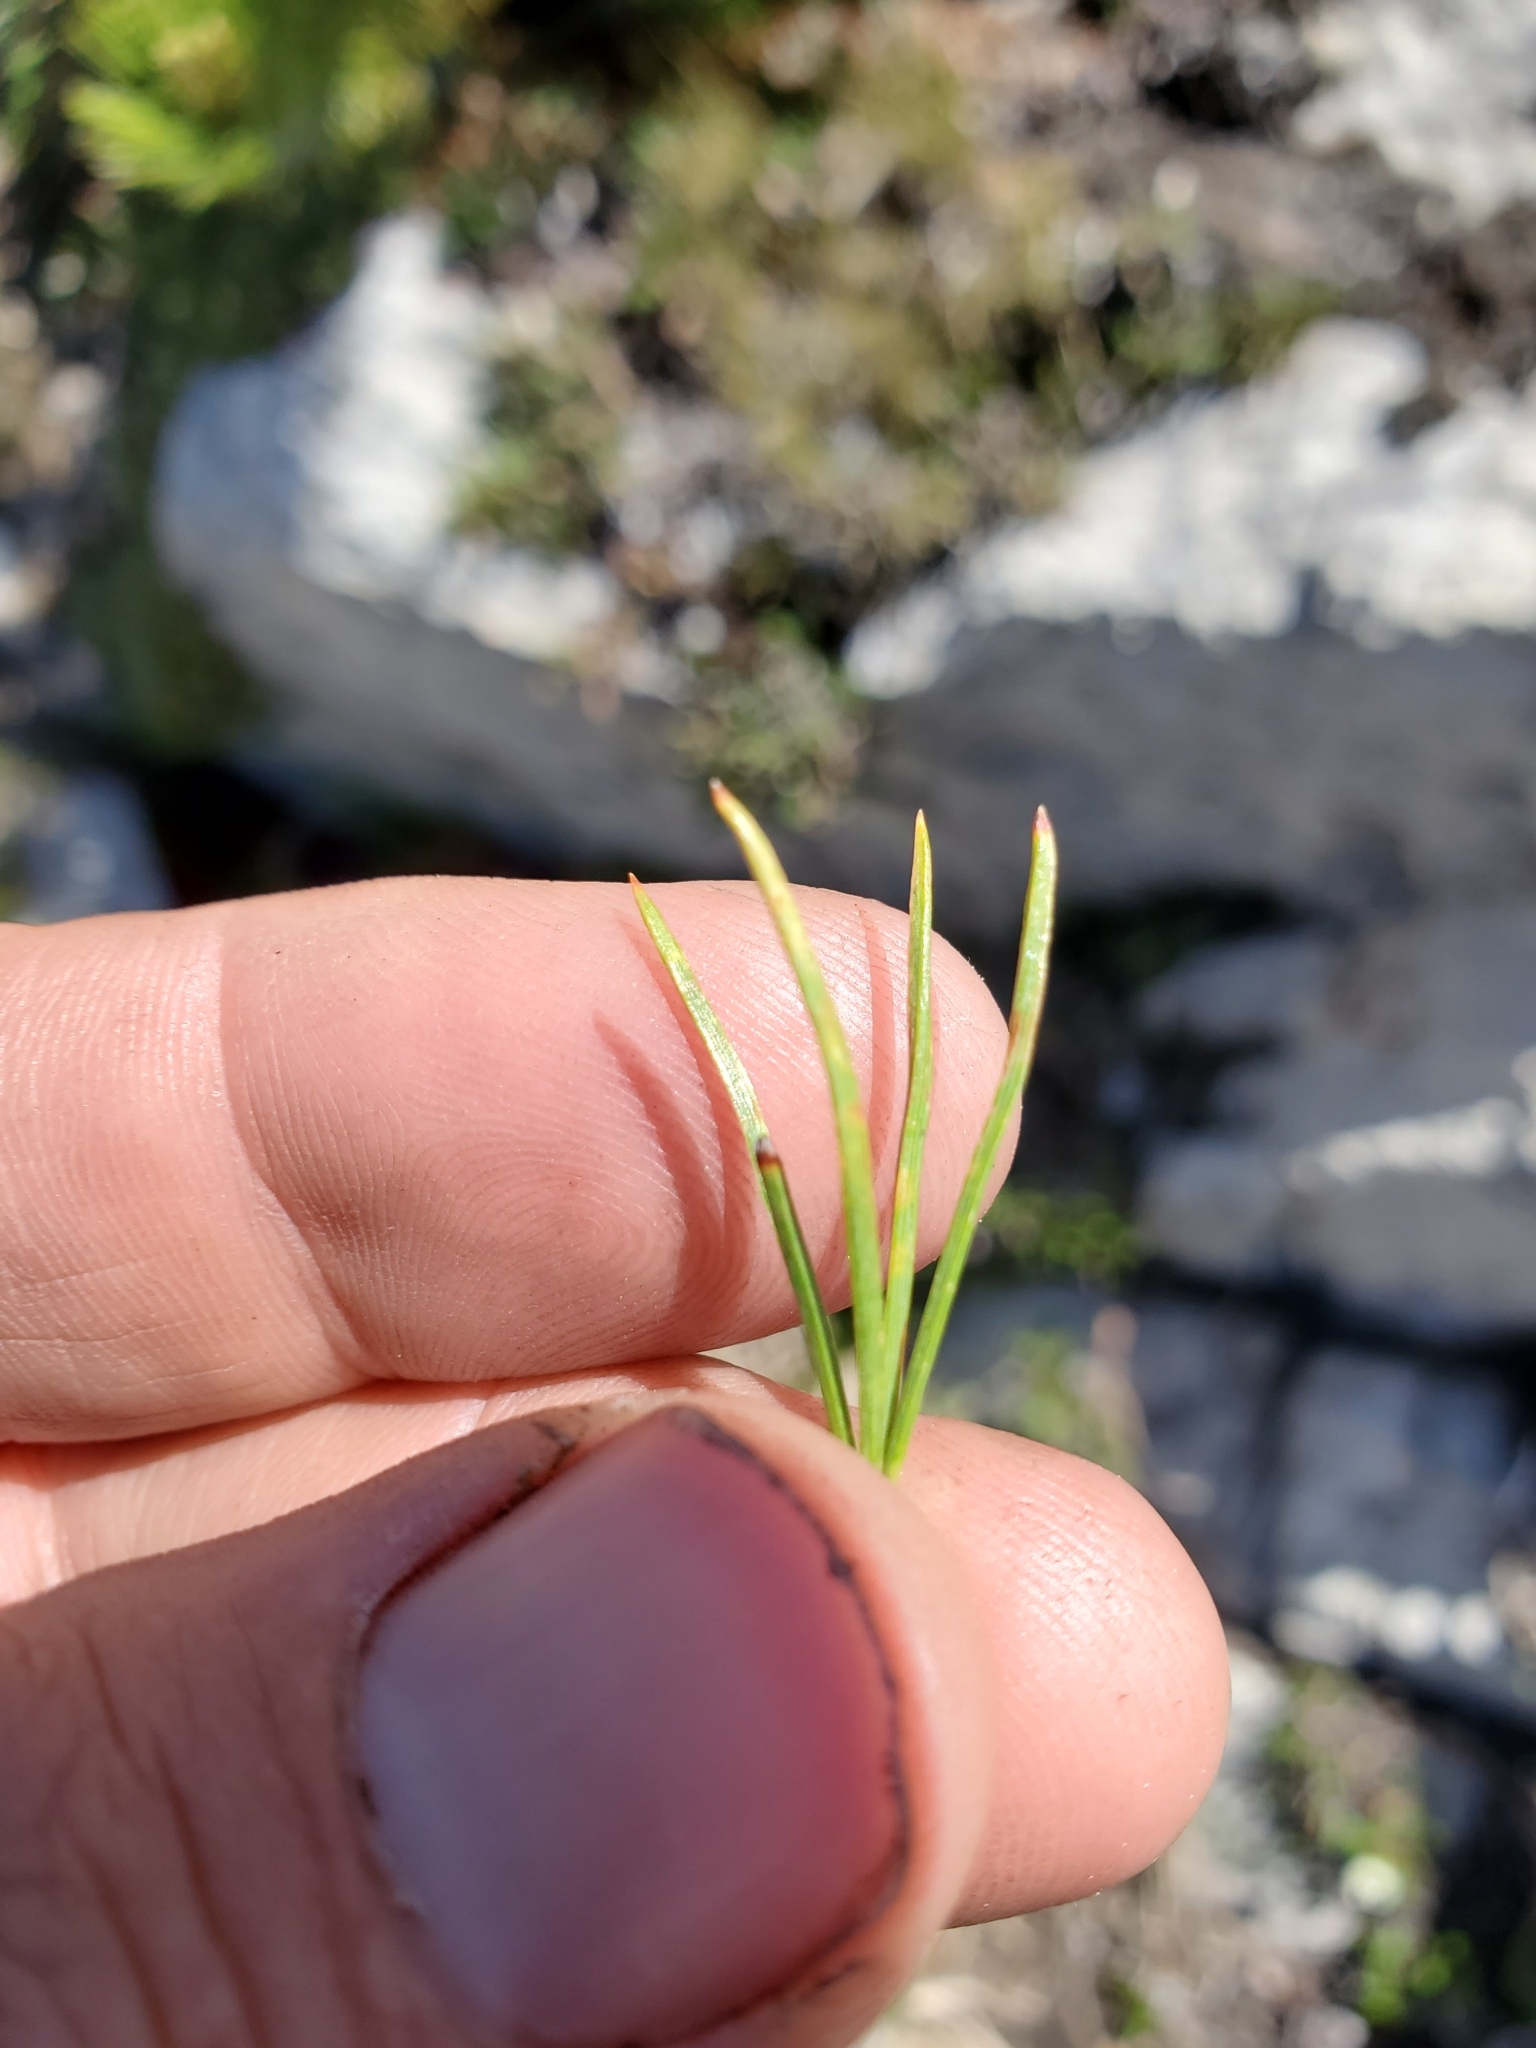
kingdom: Plantae
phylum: Tracheophyta
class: Pinopsida
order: Pinales
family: Pinaceae
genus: Pinus
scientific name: Pinus albicaulis
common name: Whitebark pine
